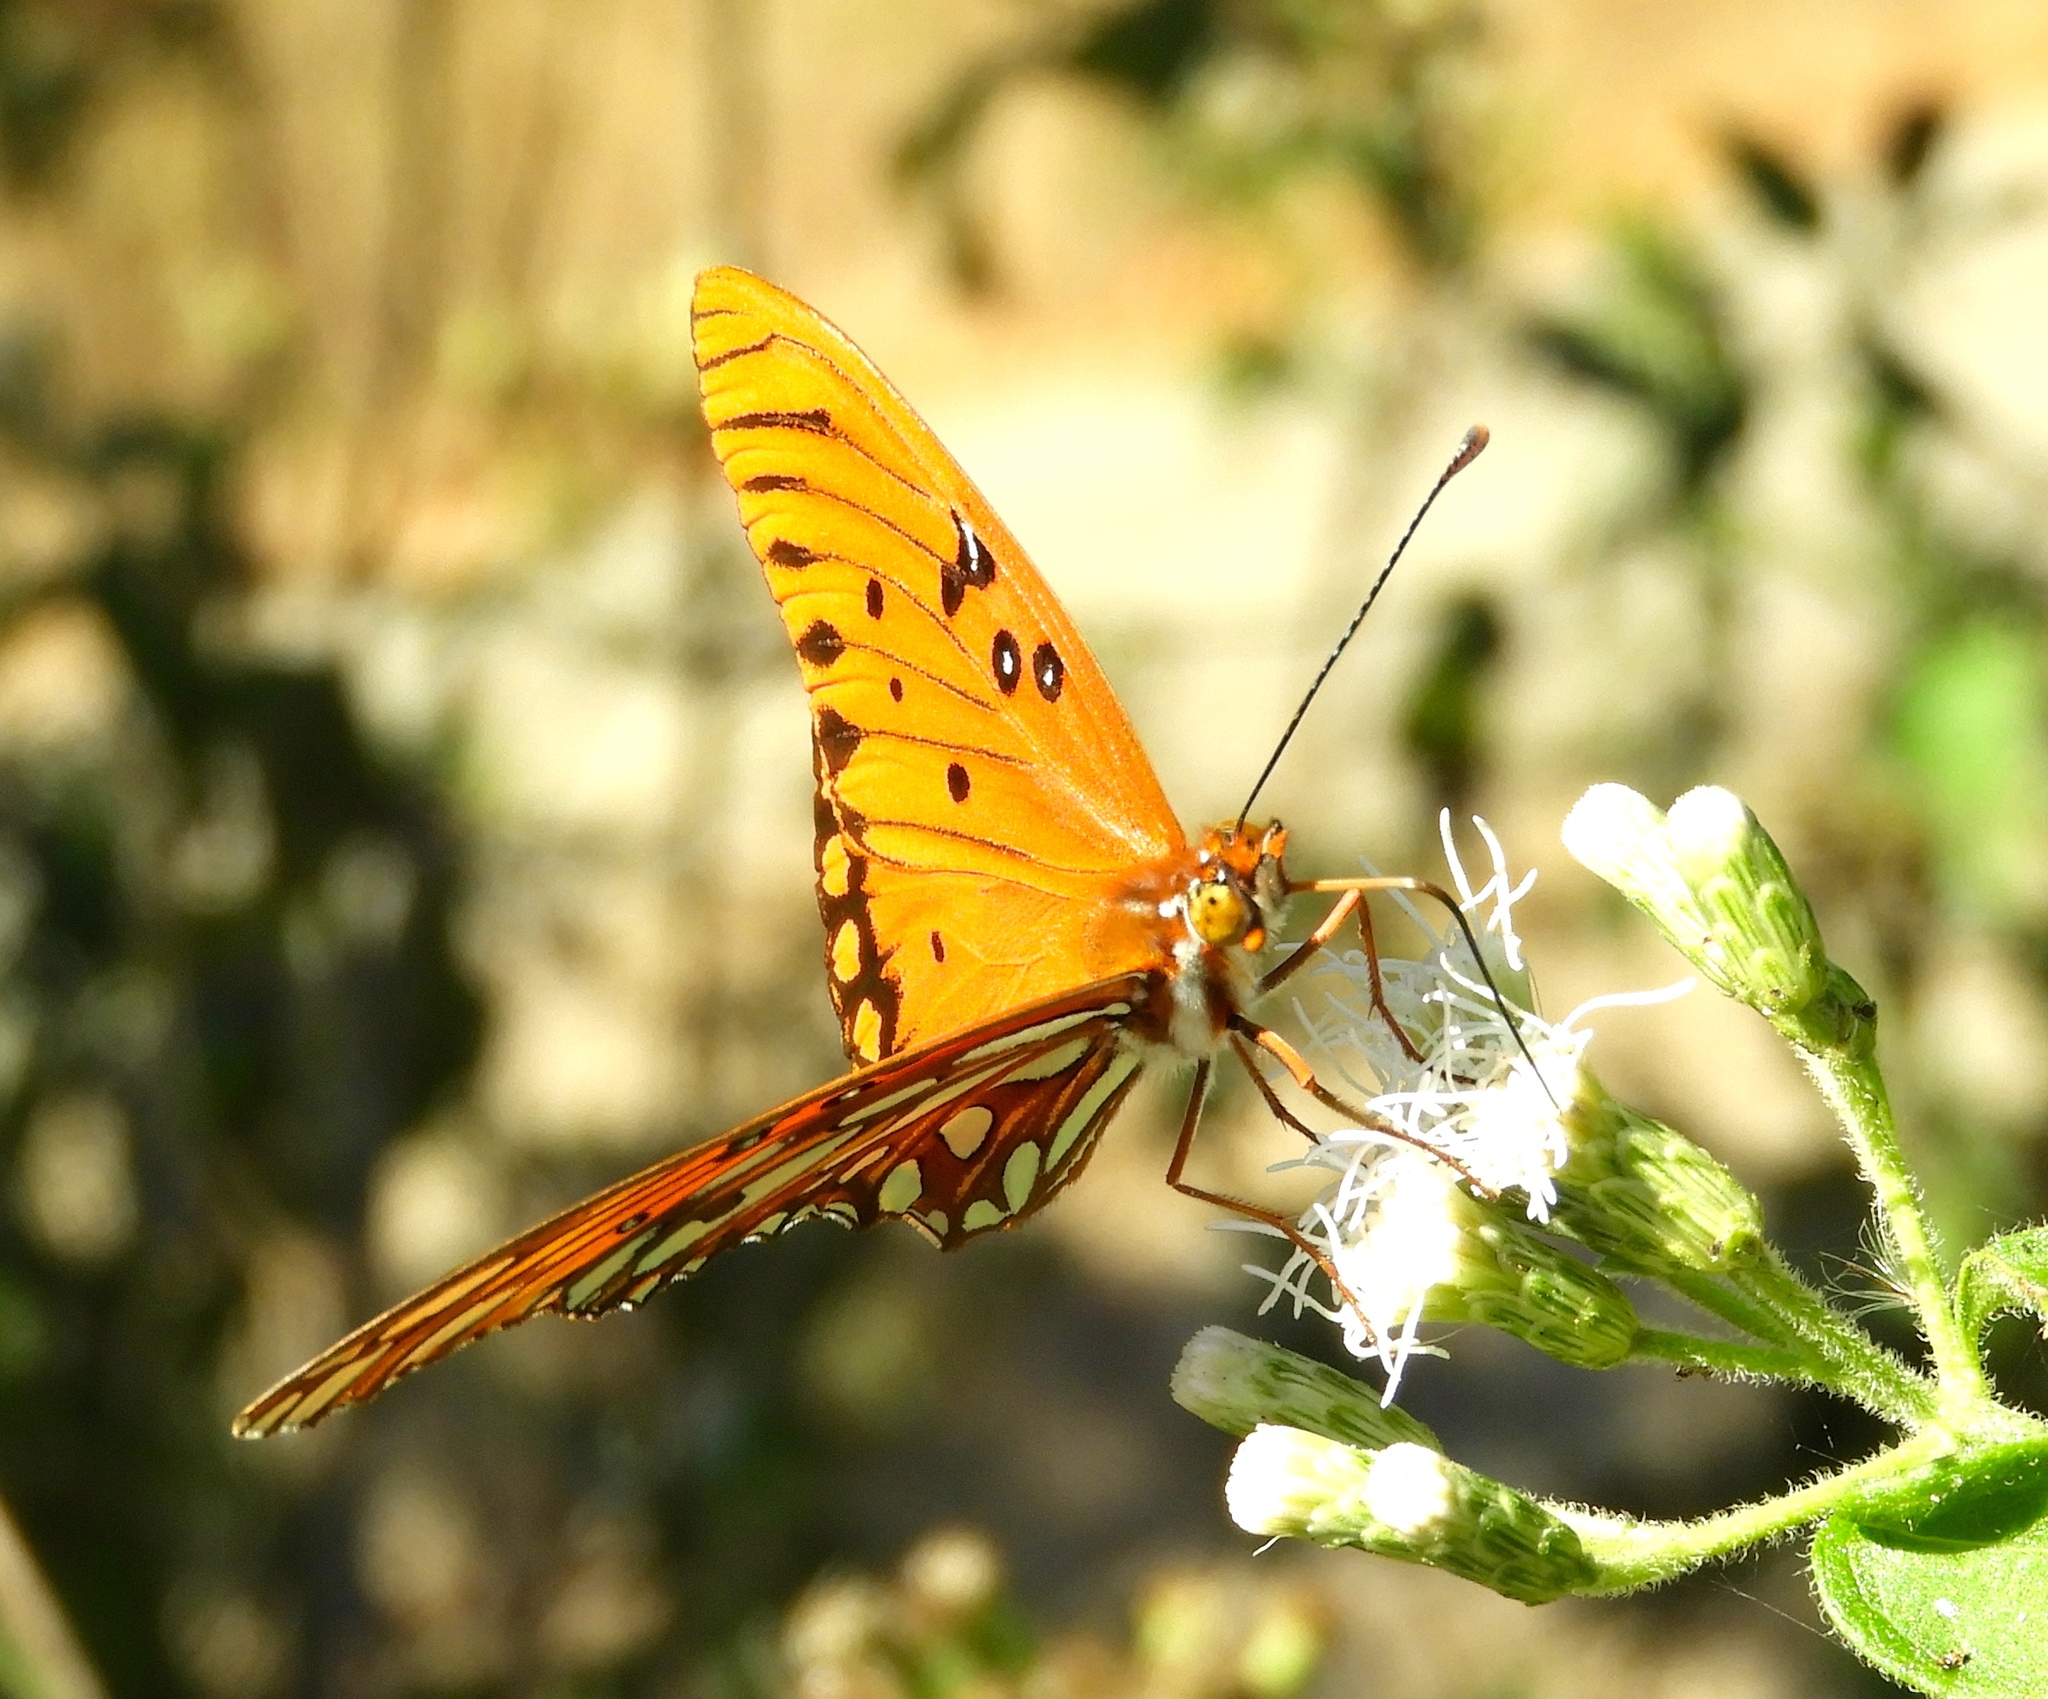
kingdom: Animalia
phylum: Arthropoda
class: Insecta
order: Lepidoptera
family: Nymphalidae
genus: Dione
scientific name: Dione vanillae
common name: Gulf fritillary
